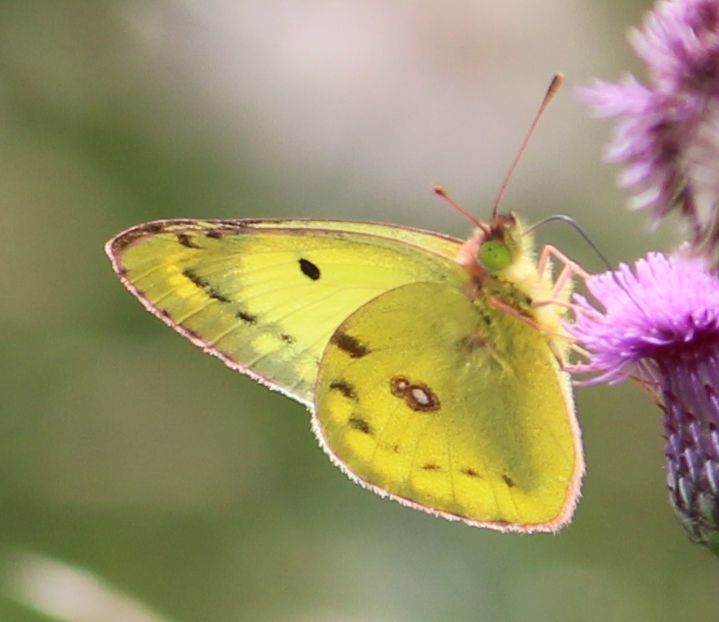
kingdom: Animalia
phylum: Arthropoda
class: Insecta
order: Lepidoptera
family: Pieridae
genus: Colias
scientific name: Colias hyale
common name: Pale clouded yellow
